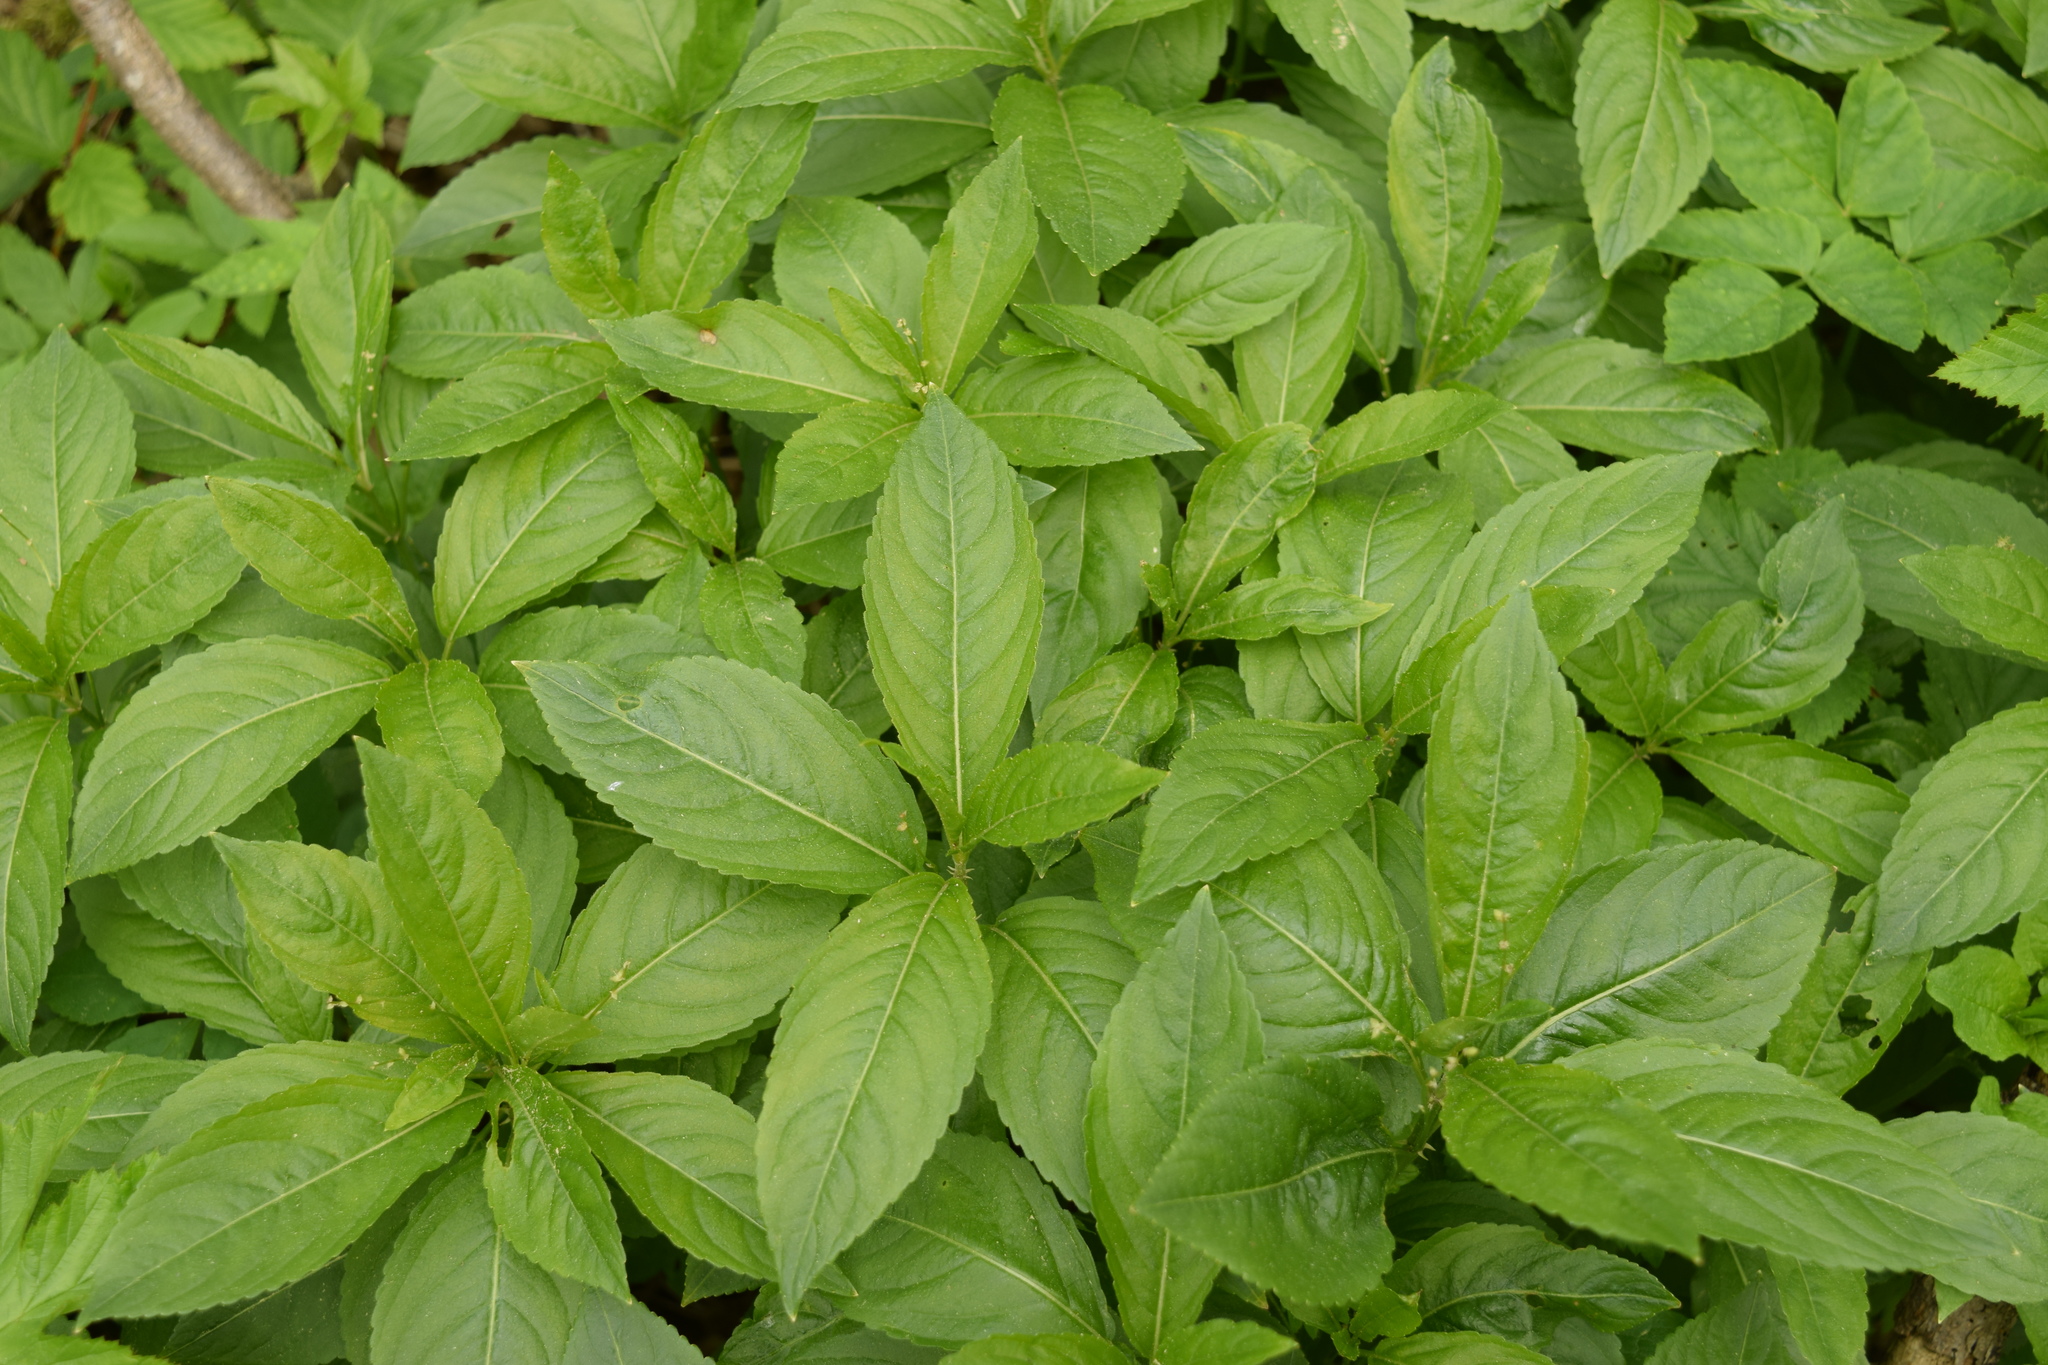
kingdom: Plantae
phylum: Tracheophyta
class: Magnoliopsida
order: Malpighiales
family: Euphorbiaceae
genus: Mercurialis
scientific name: Mercurialis perennis
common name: Dog mercury
